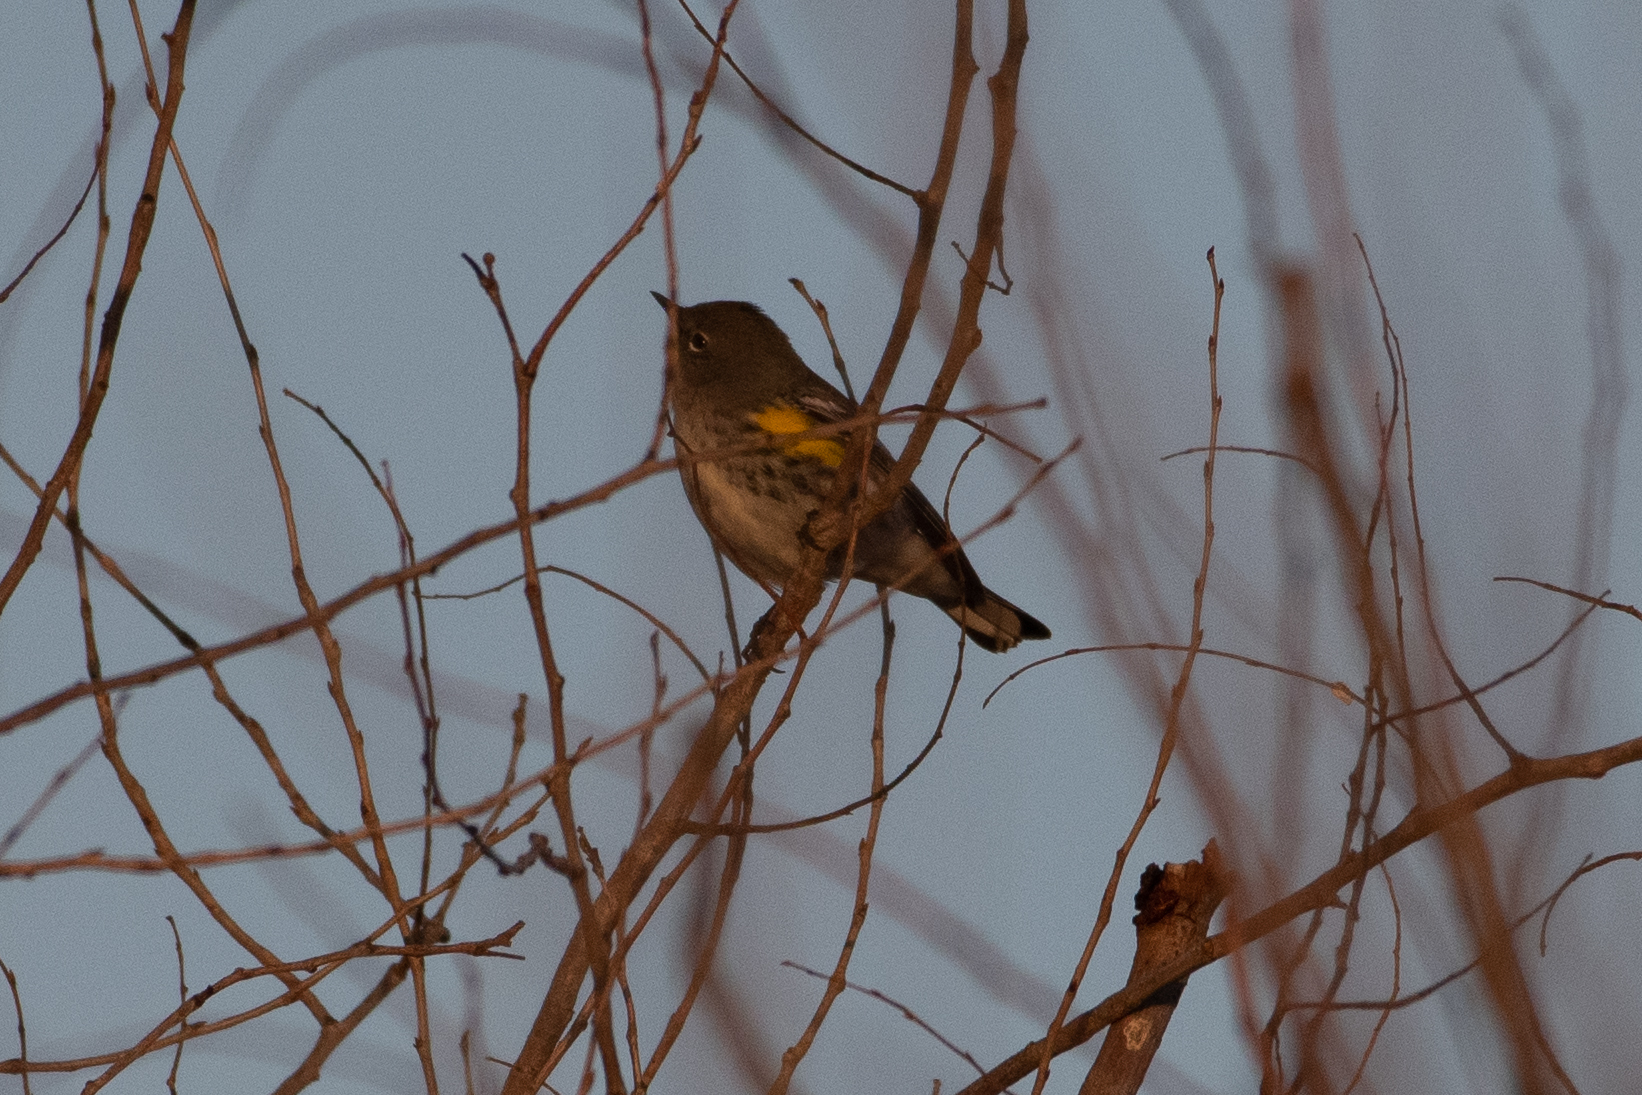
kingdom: Animalia
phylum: Chordata
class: Aves
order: Passeriformes
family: Parulidae
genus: Setophaga
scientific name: Setophaga coronata
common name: Myrtle warbler
